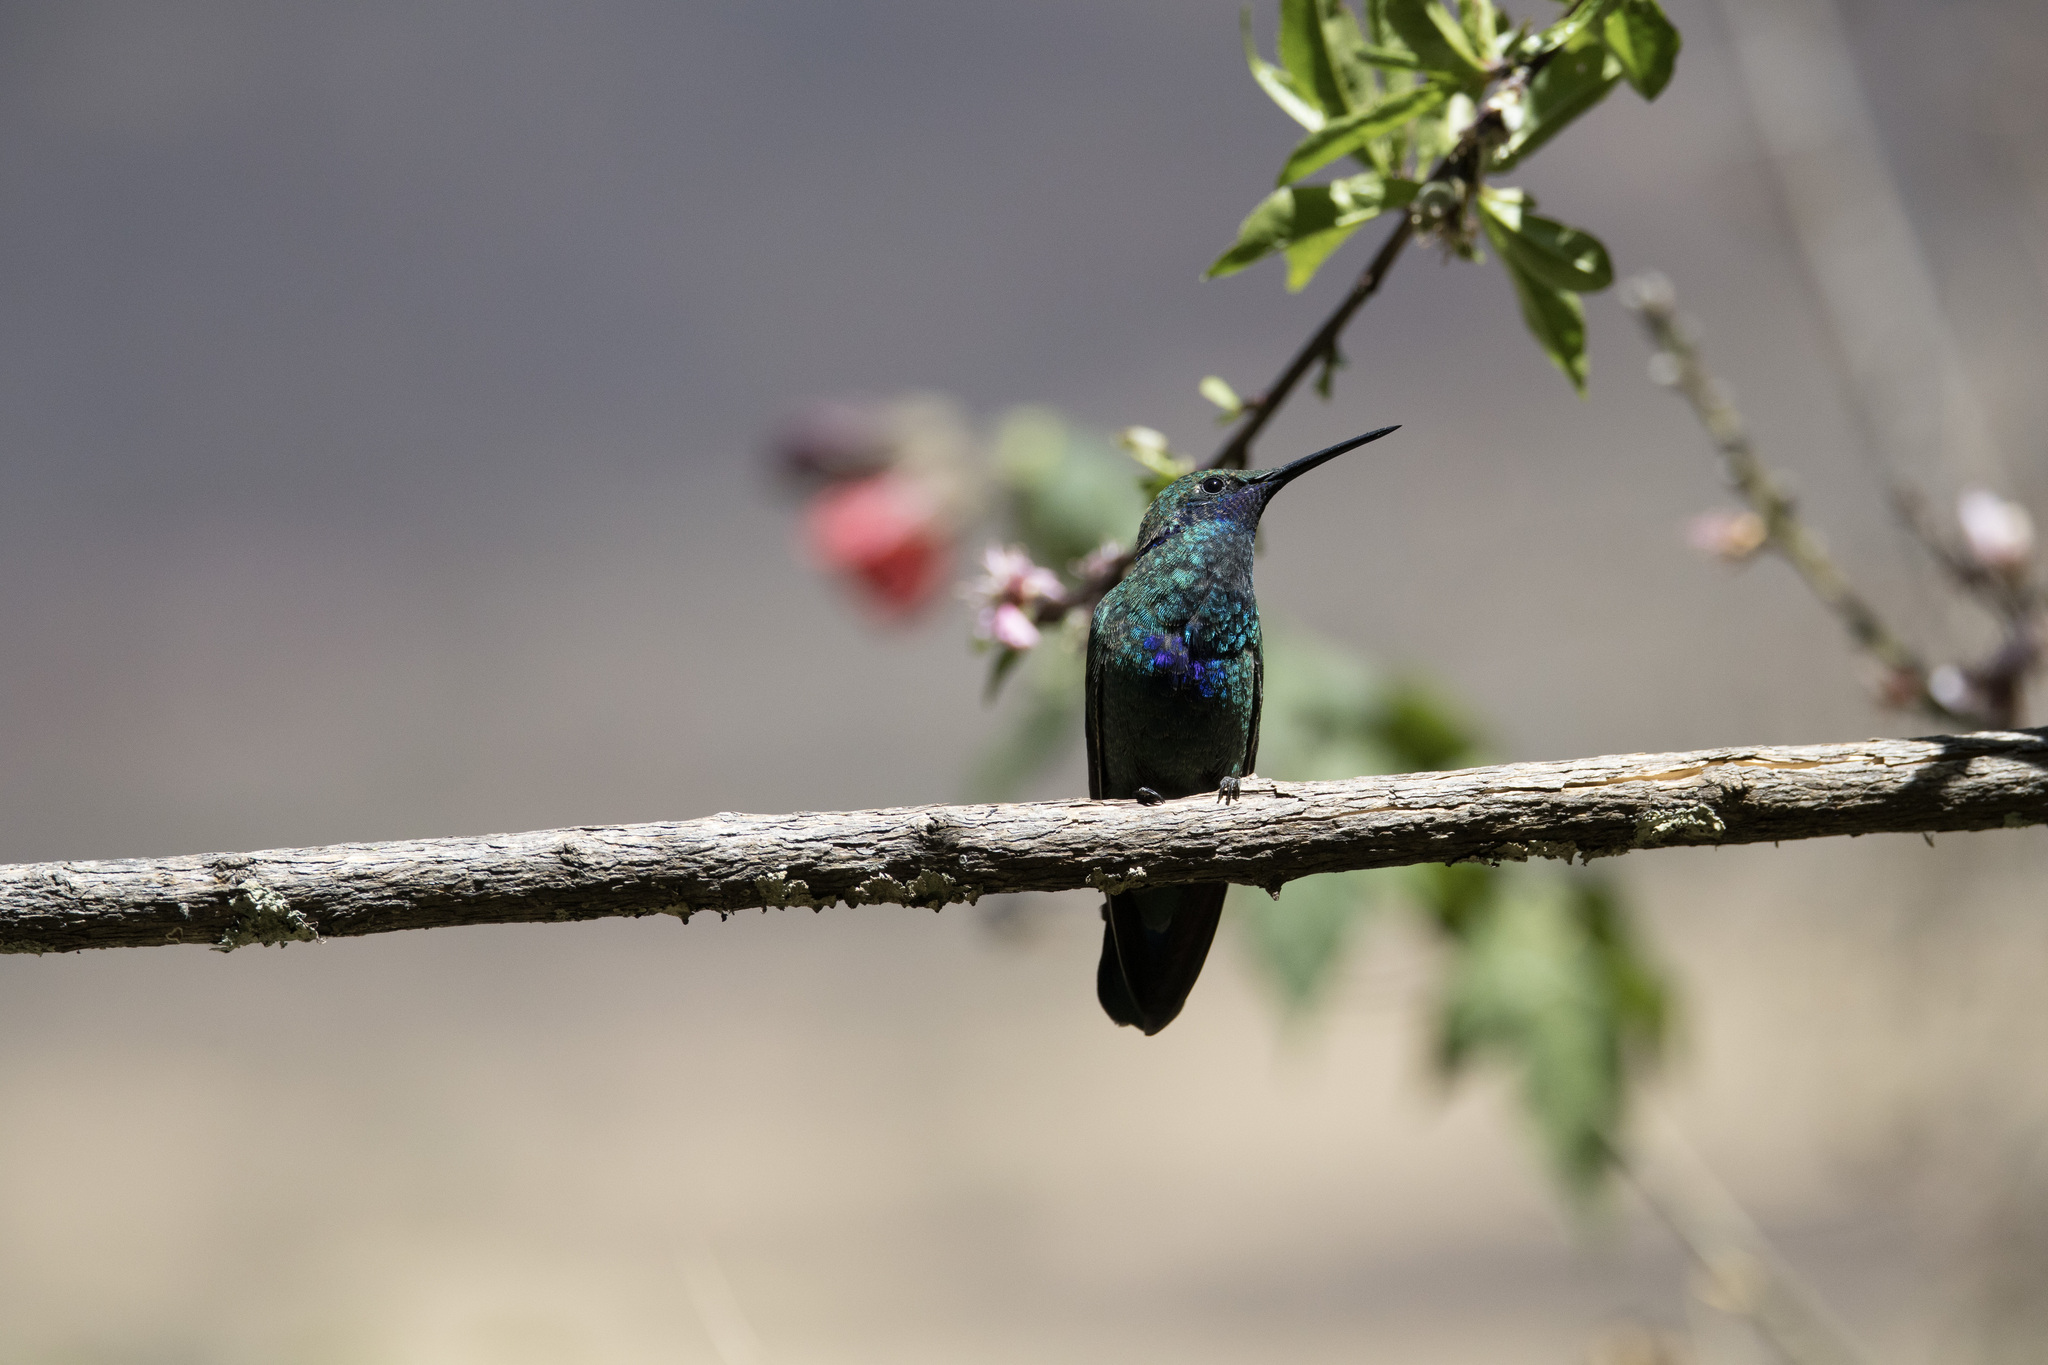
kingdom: Animalia
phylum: Chordata
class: Aves
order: Apodiformes
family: Trochilidae
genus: Colibri
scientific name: Colibri coruscans
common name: Sparkling violetear
